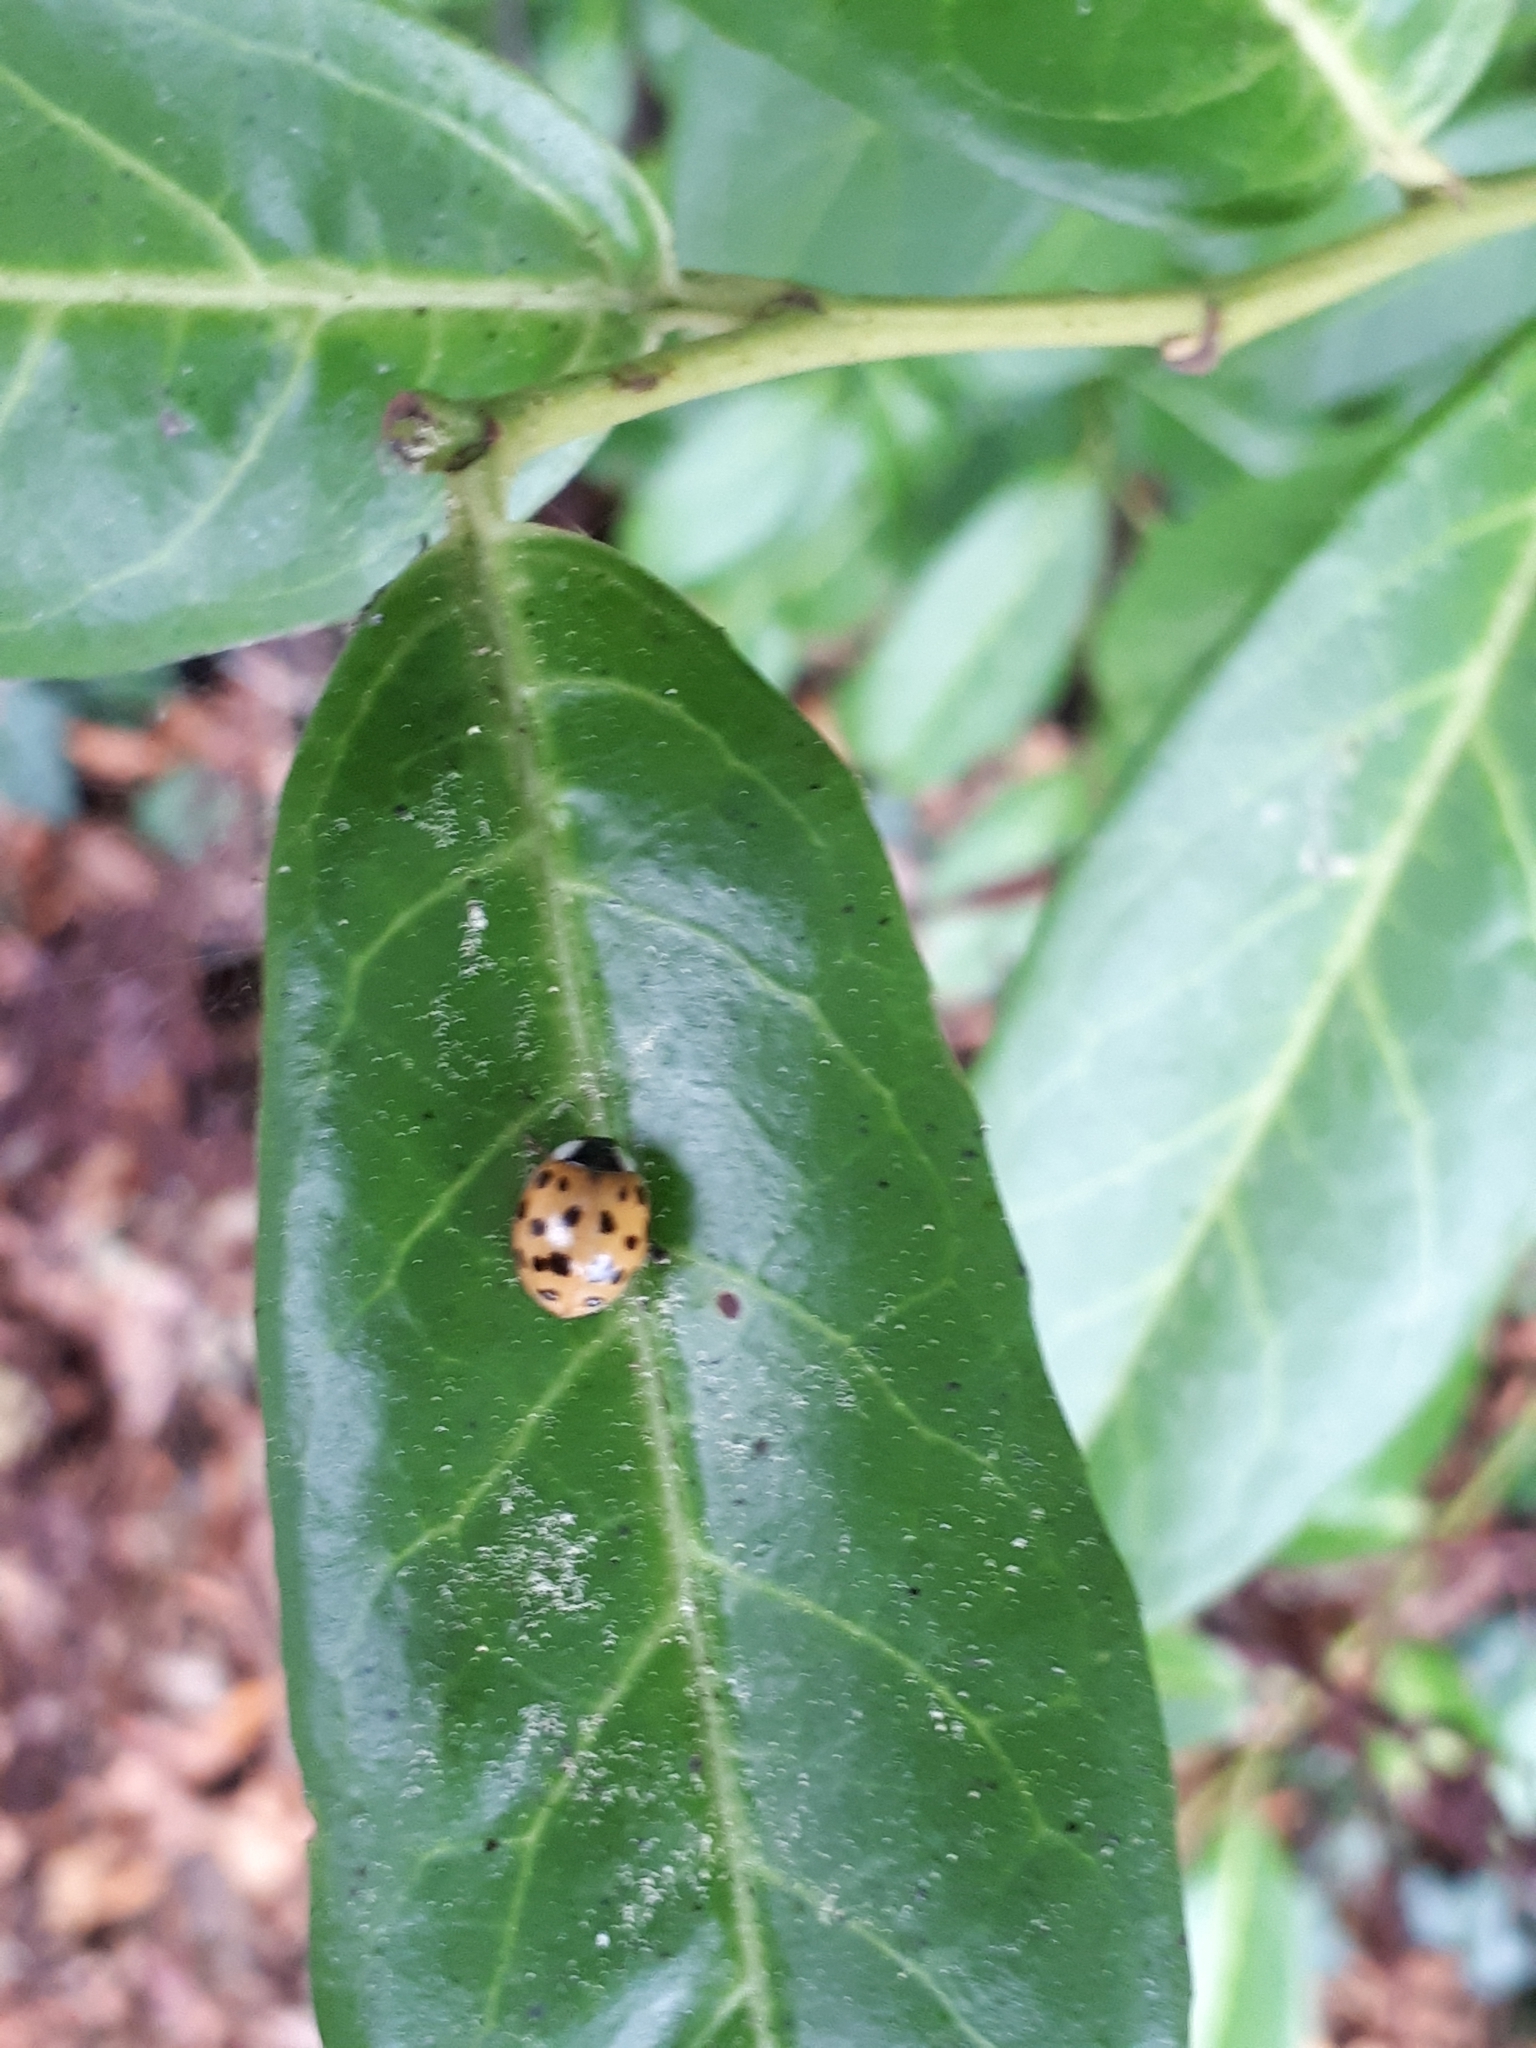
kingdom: Animalia
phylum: Arthropoda
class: Insecta
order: Coleoptera
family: Coccinellidae
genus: Harmonia
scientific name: Harmonia axyridis
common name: Harlequin ladybird
